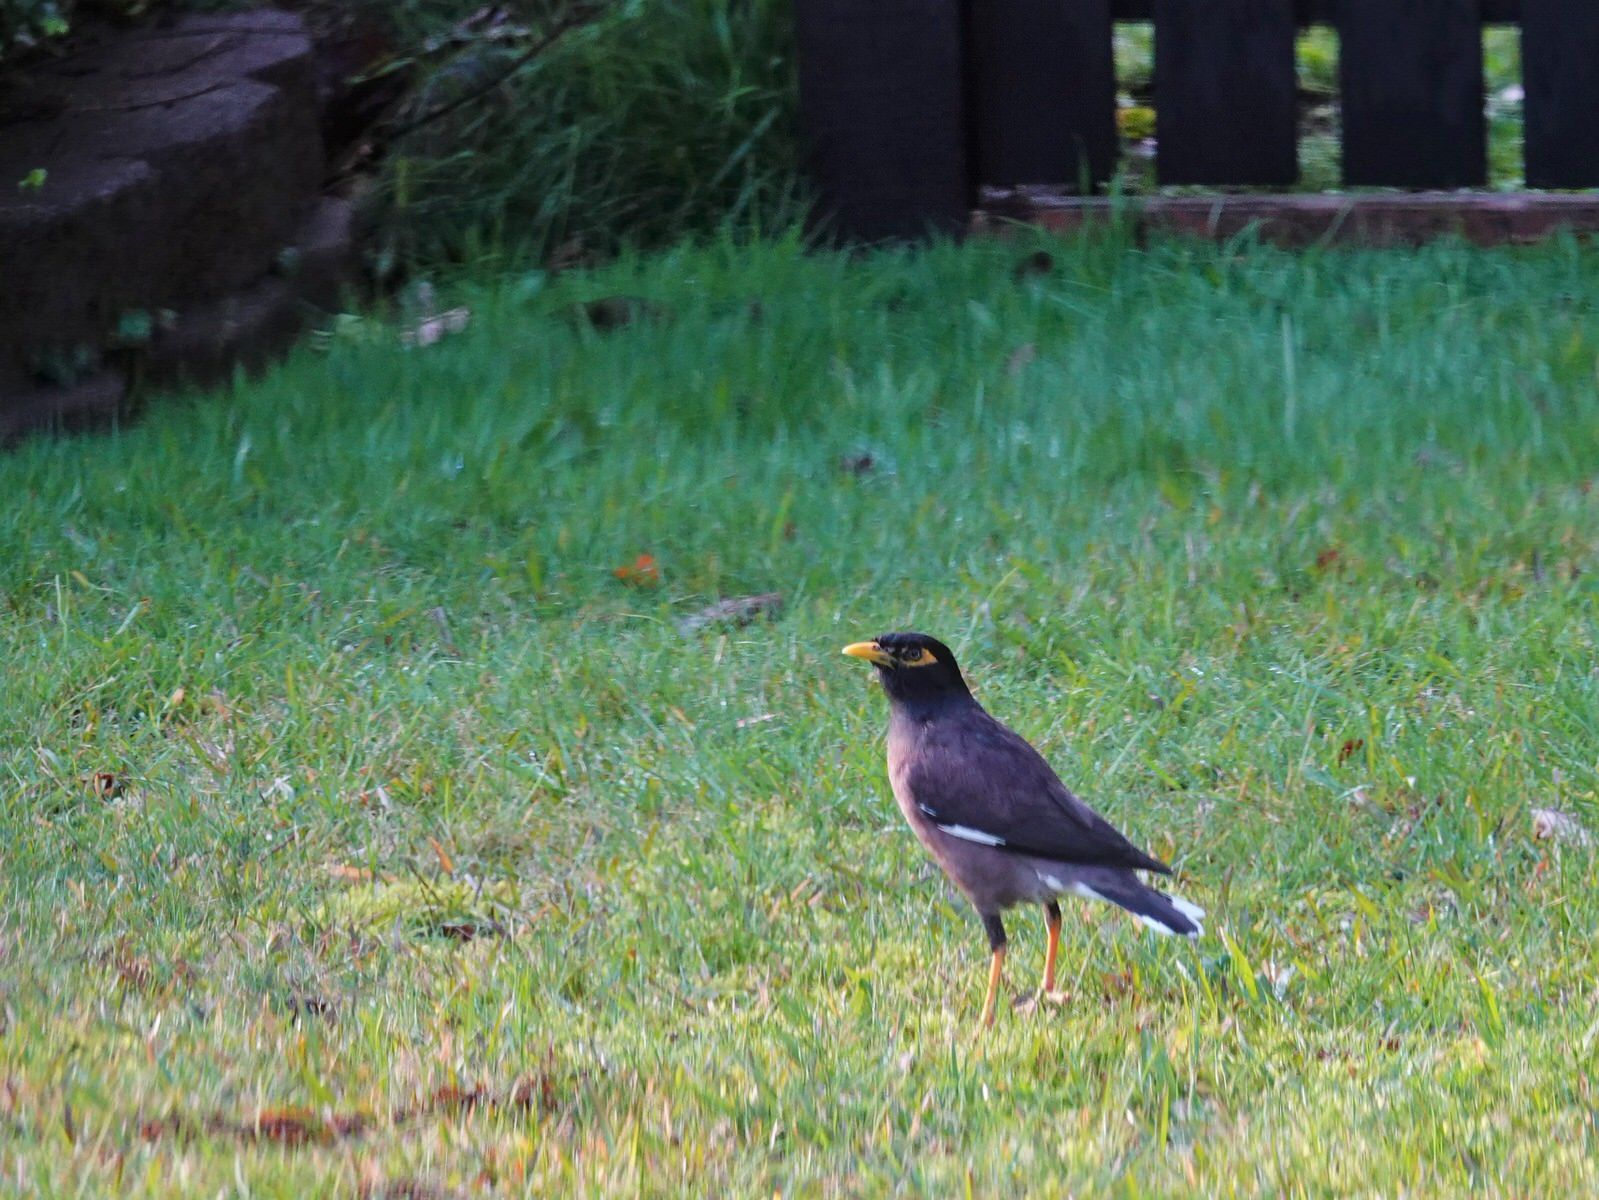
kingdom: Animalia
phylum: Chordata
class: Aves
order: Passeriformes
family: Sturnidae
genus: Acridotheres
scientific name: Acridotheres tristis
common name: Common myna
